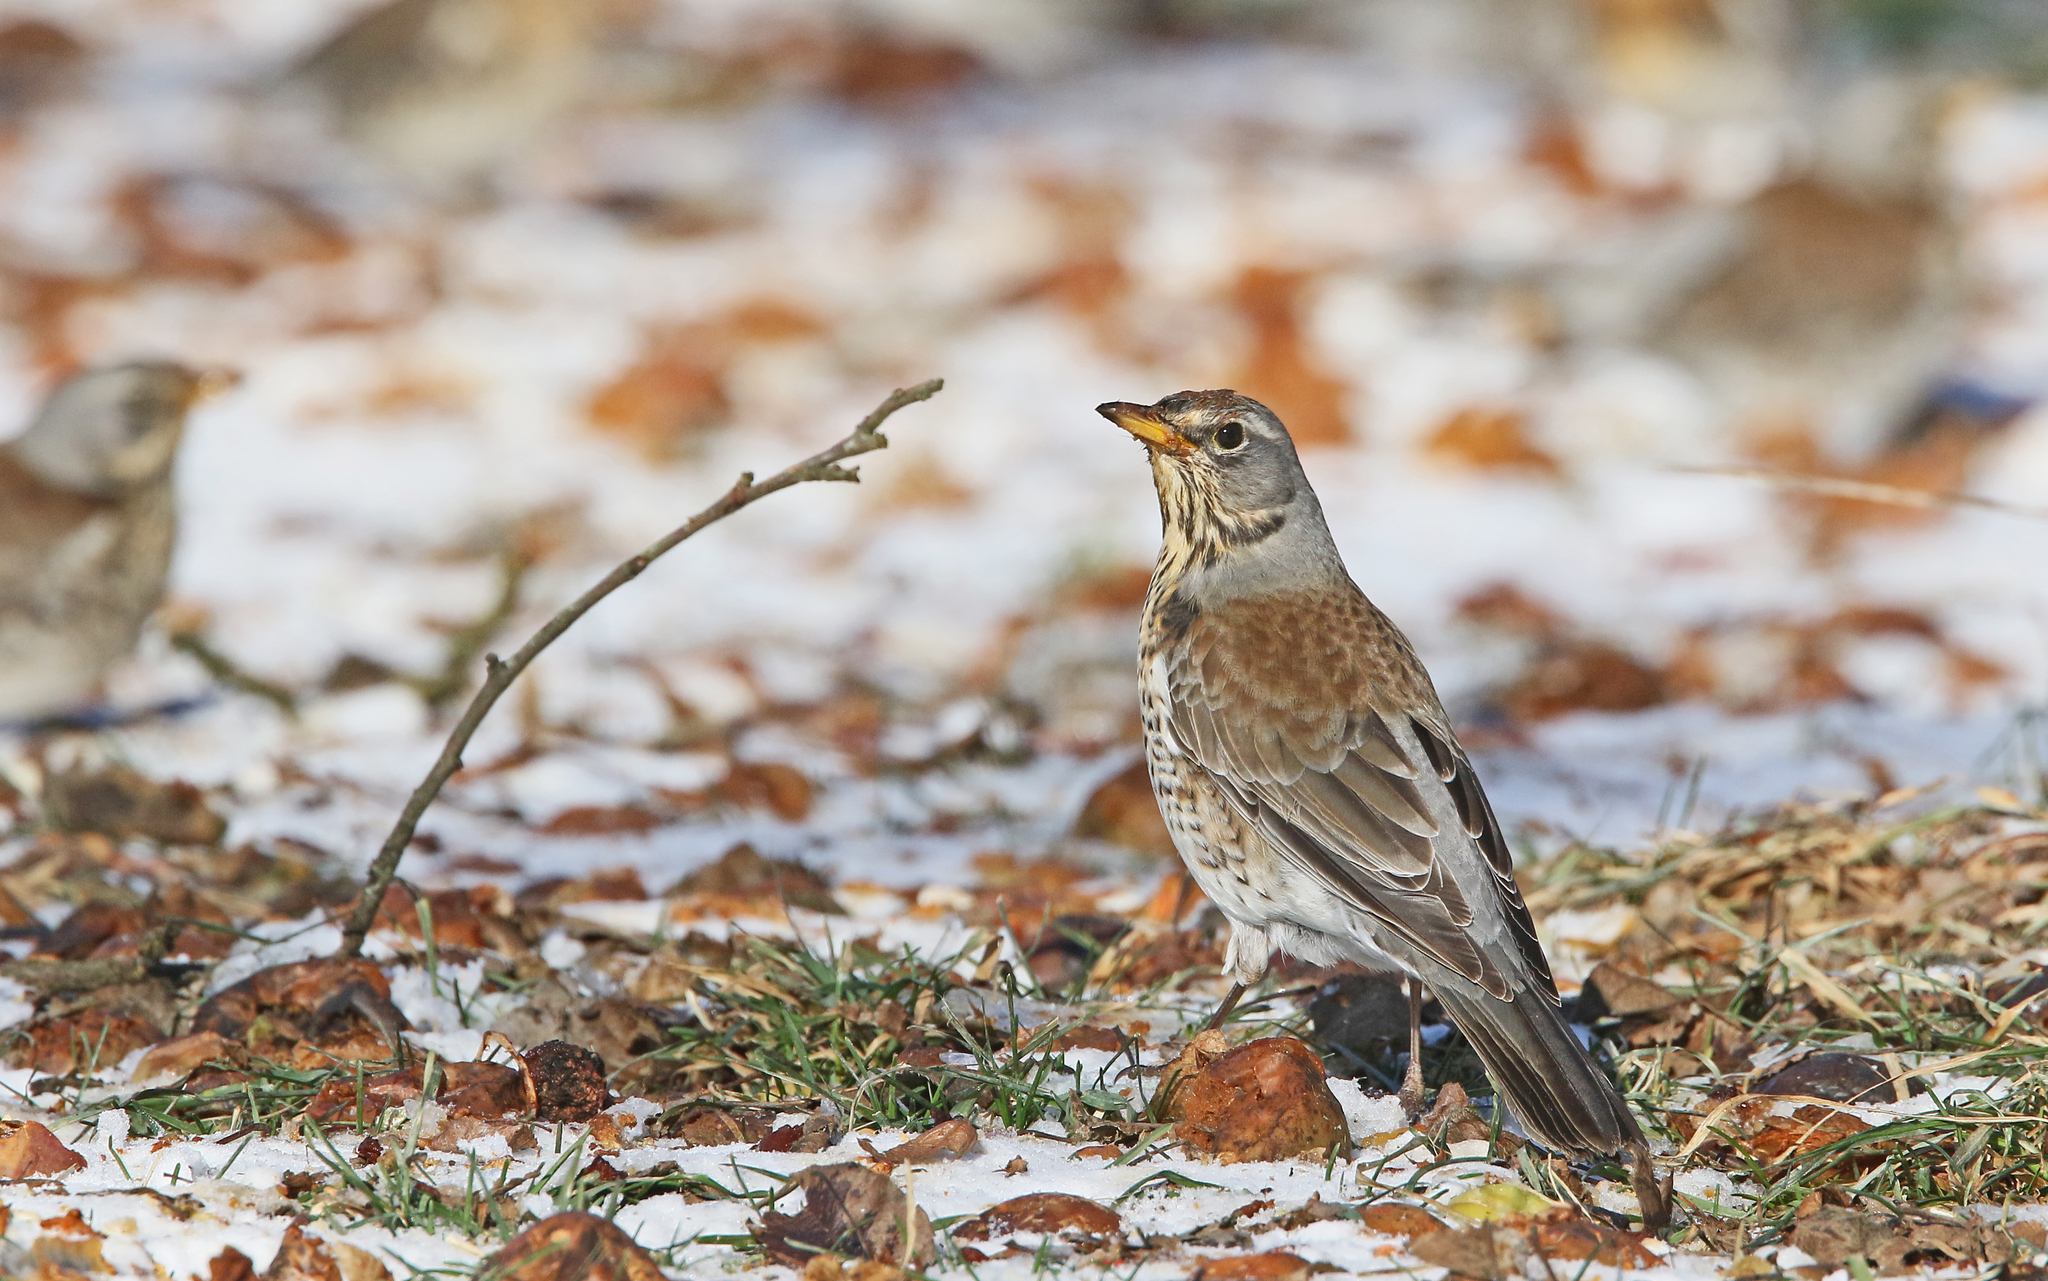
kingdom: Animalia
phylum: Chordata
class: Aves
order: Passeriformes
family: Turdidae
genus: Turdus
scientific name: Turdus pilaris
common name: Fieldfare
